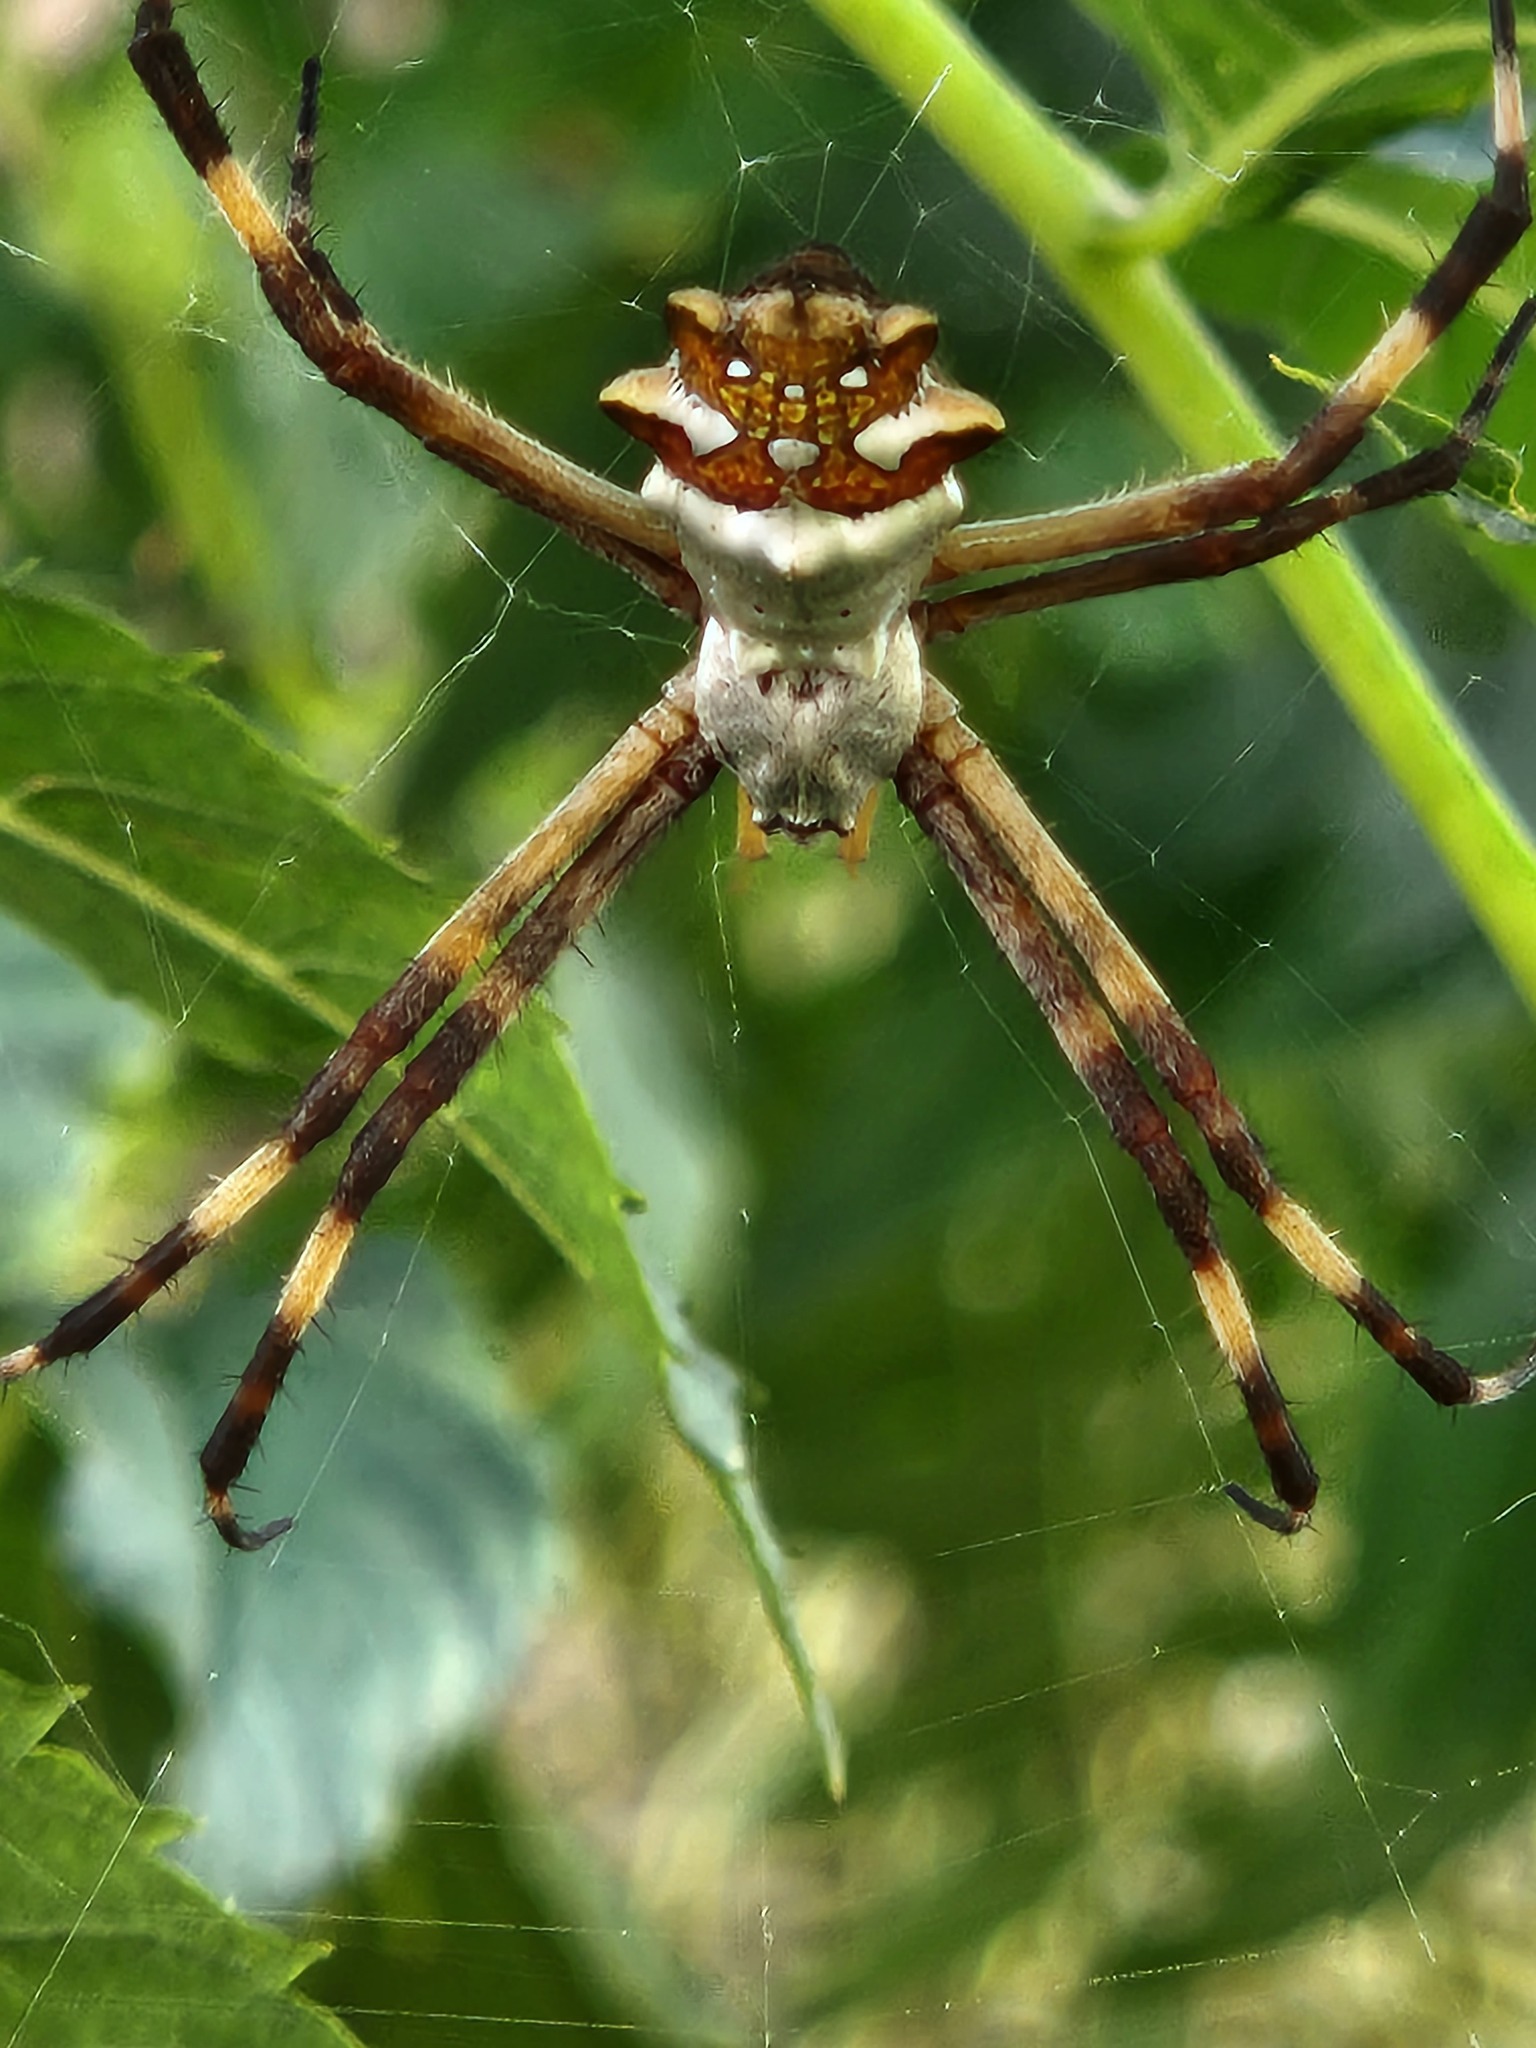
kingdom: Animalia
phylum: Arthropoda
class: Arachnida
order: Araneae
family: Araneidae
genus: Argiope
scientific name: Argiope argentata
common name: Orb weavers
